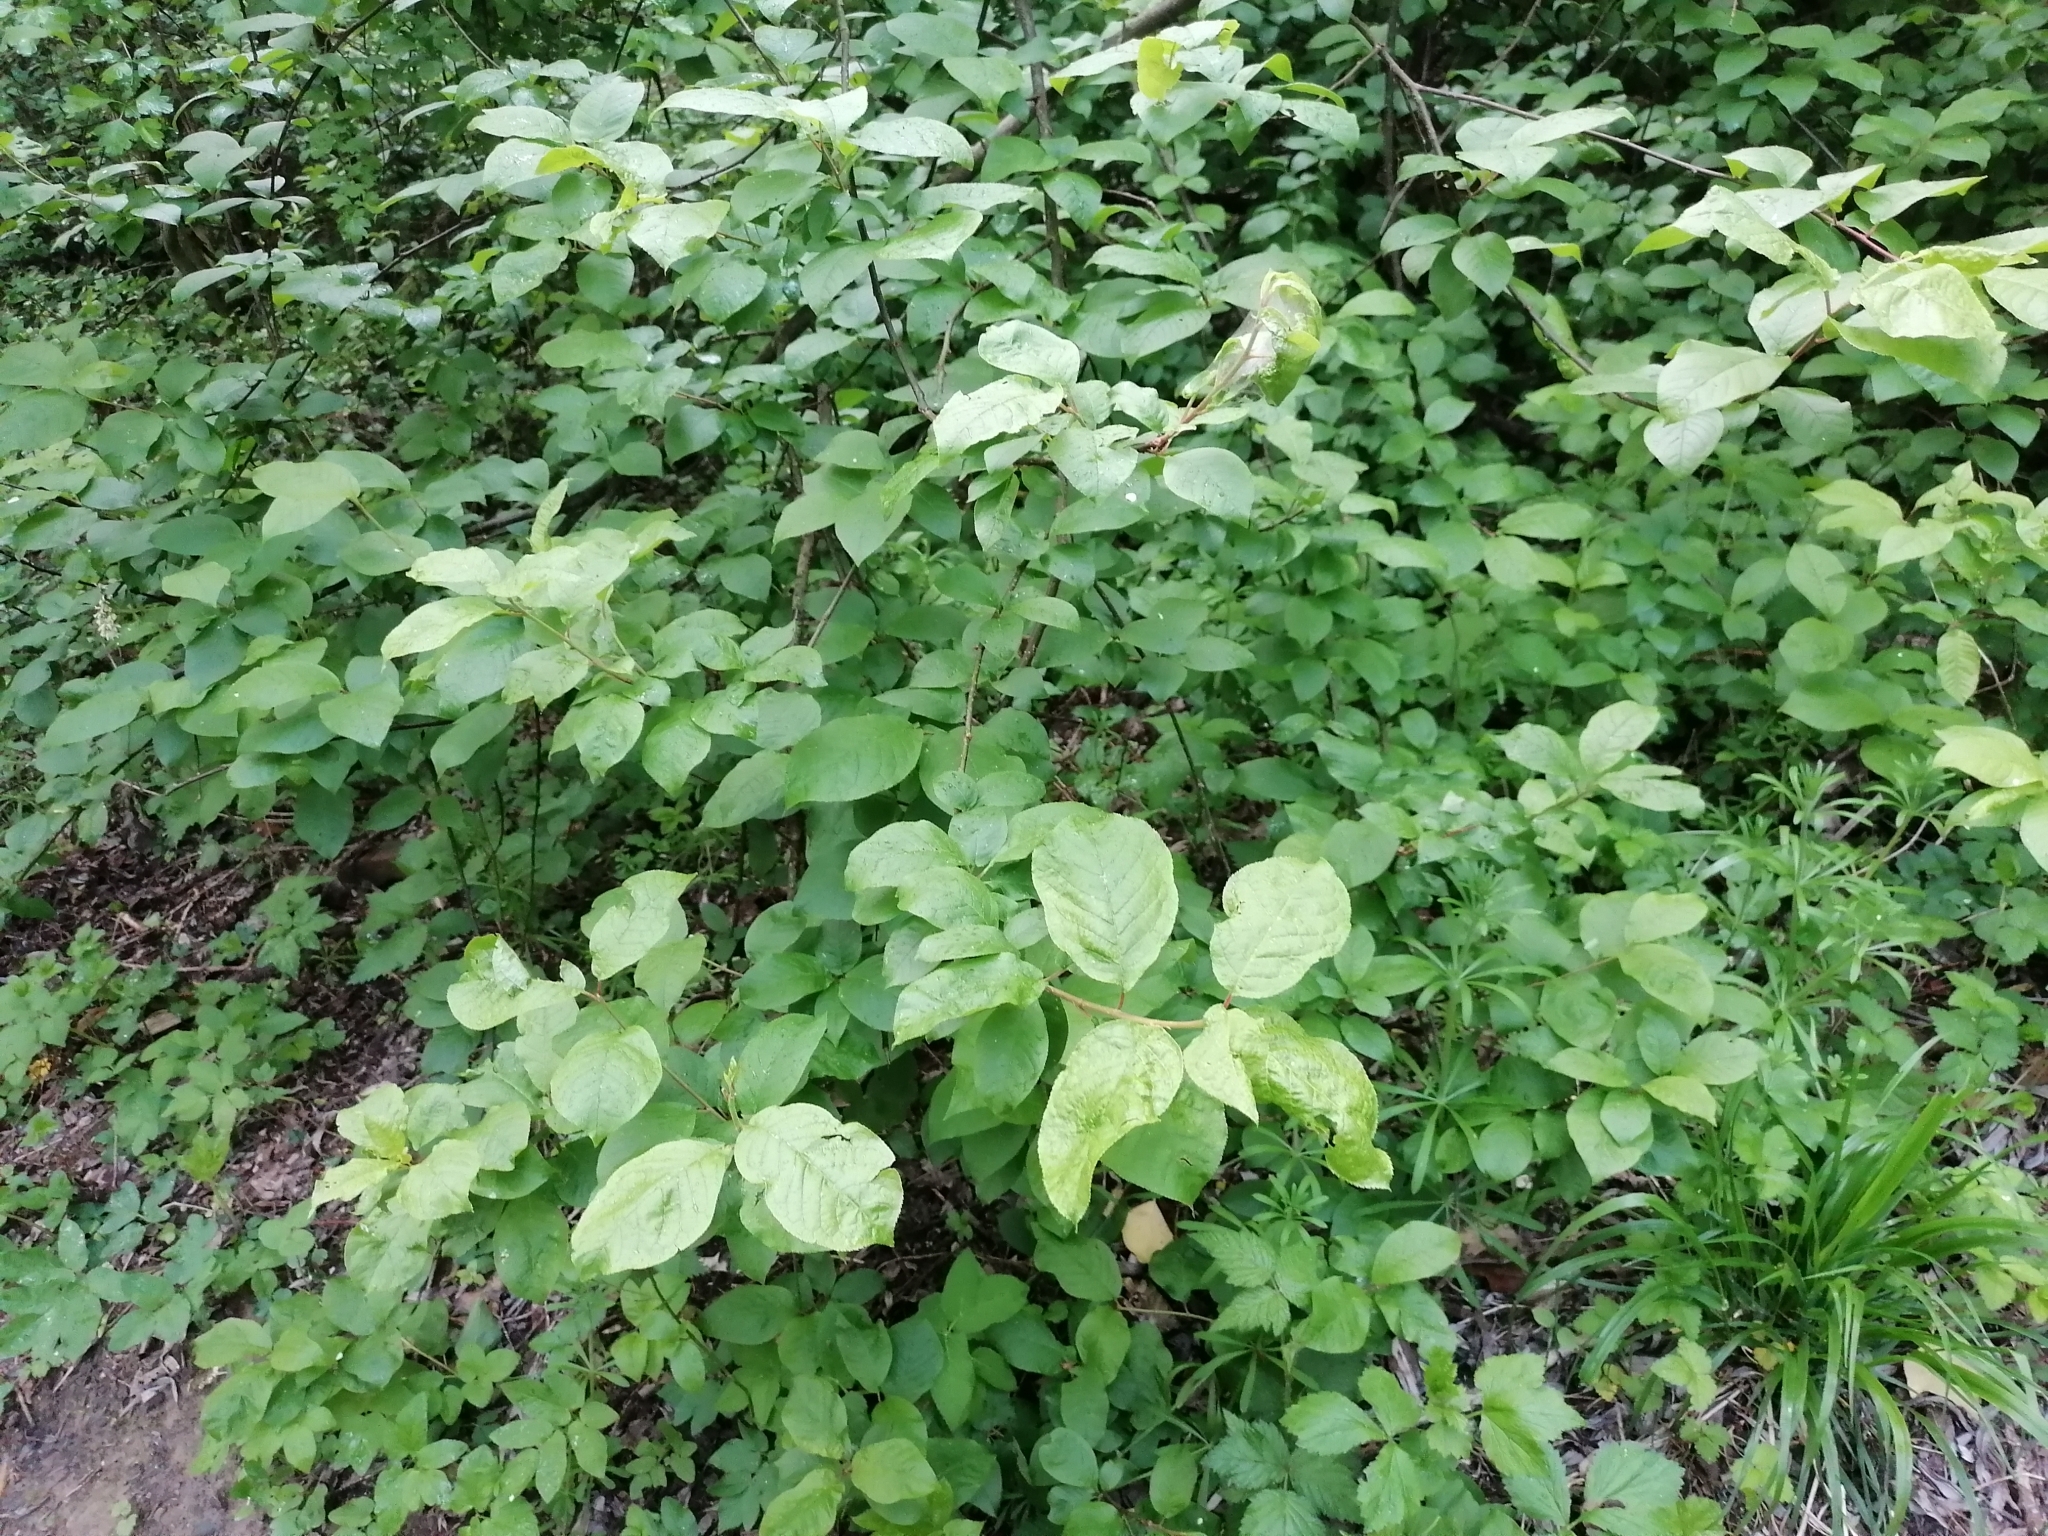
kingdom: Plantae
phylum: Tracheophyta
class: Magnoliopsida
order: Rosales
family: Rosaceae
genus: Prunus
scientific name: Prunus padus
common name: Bird cherry
